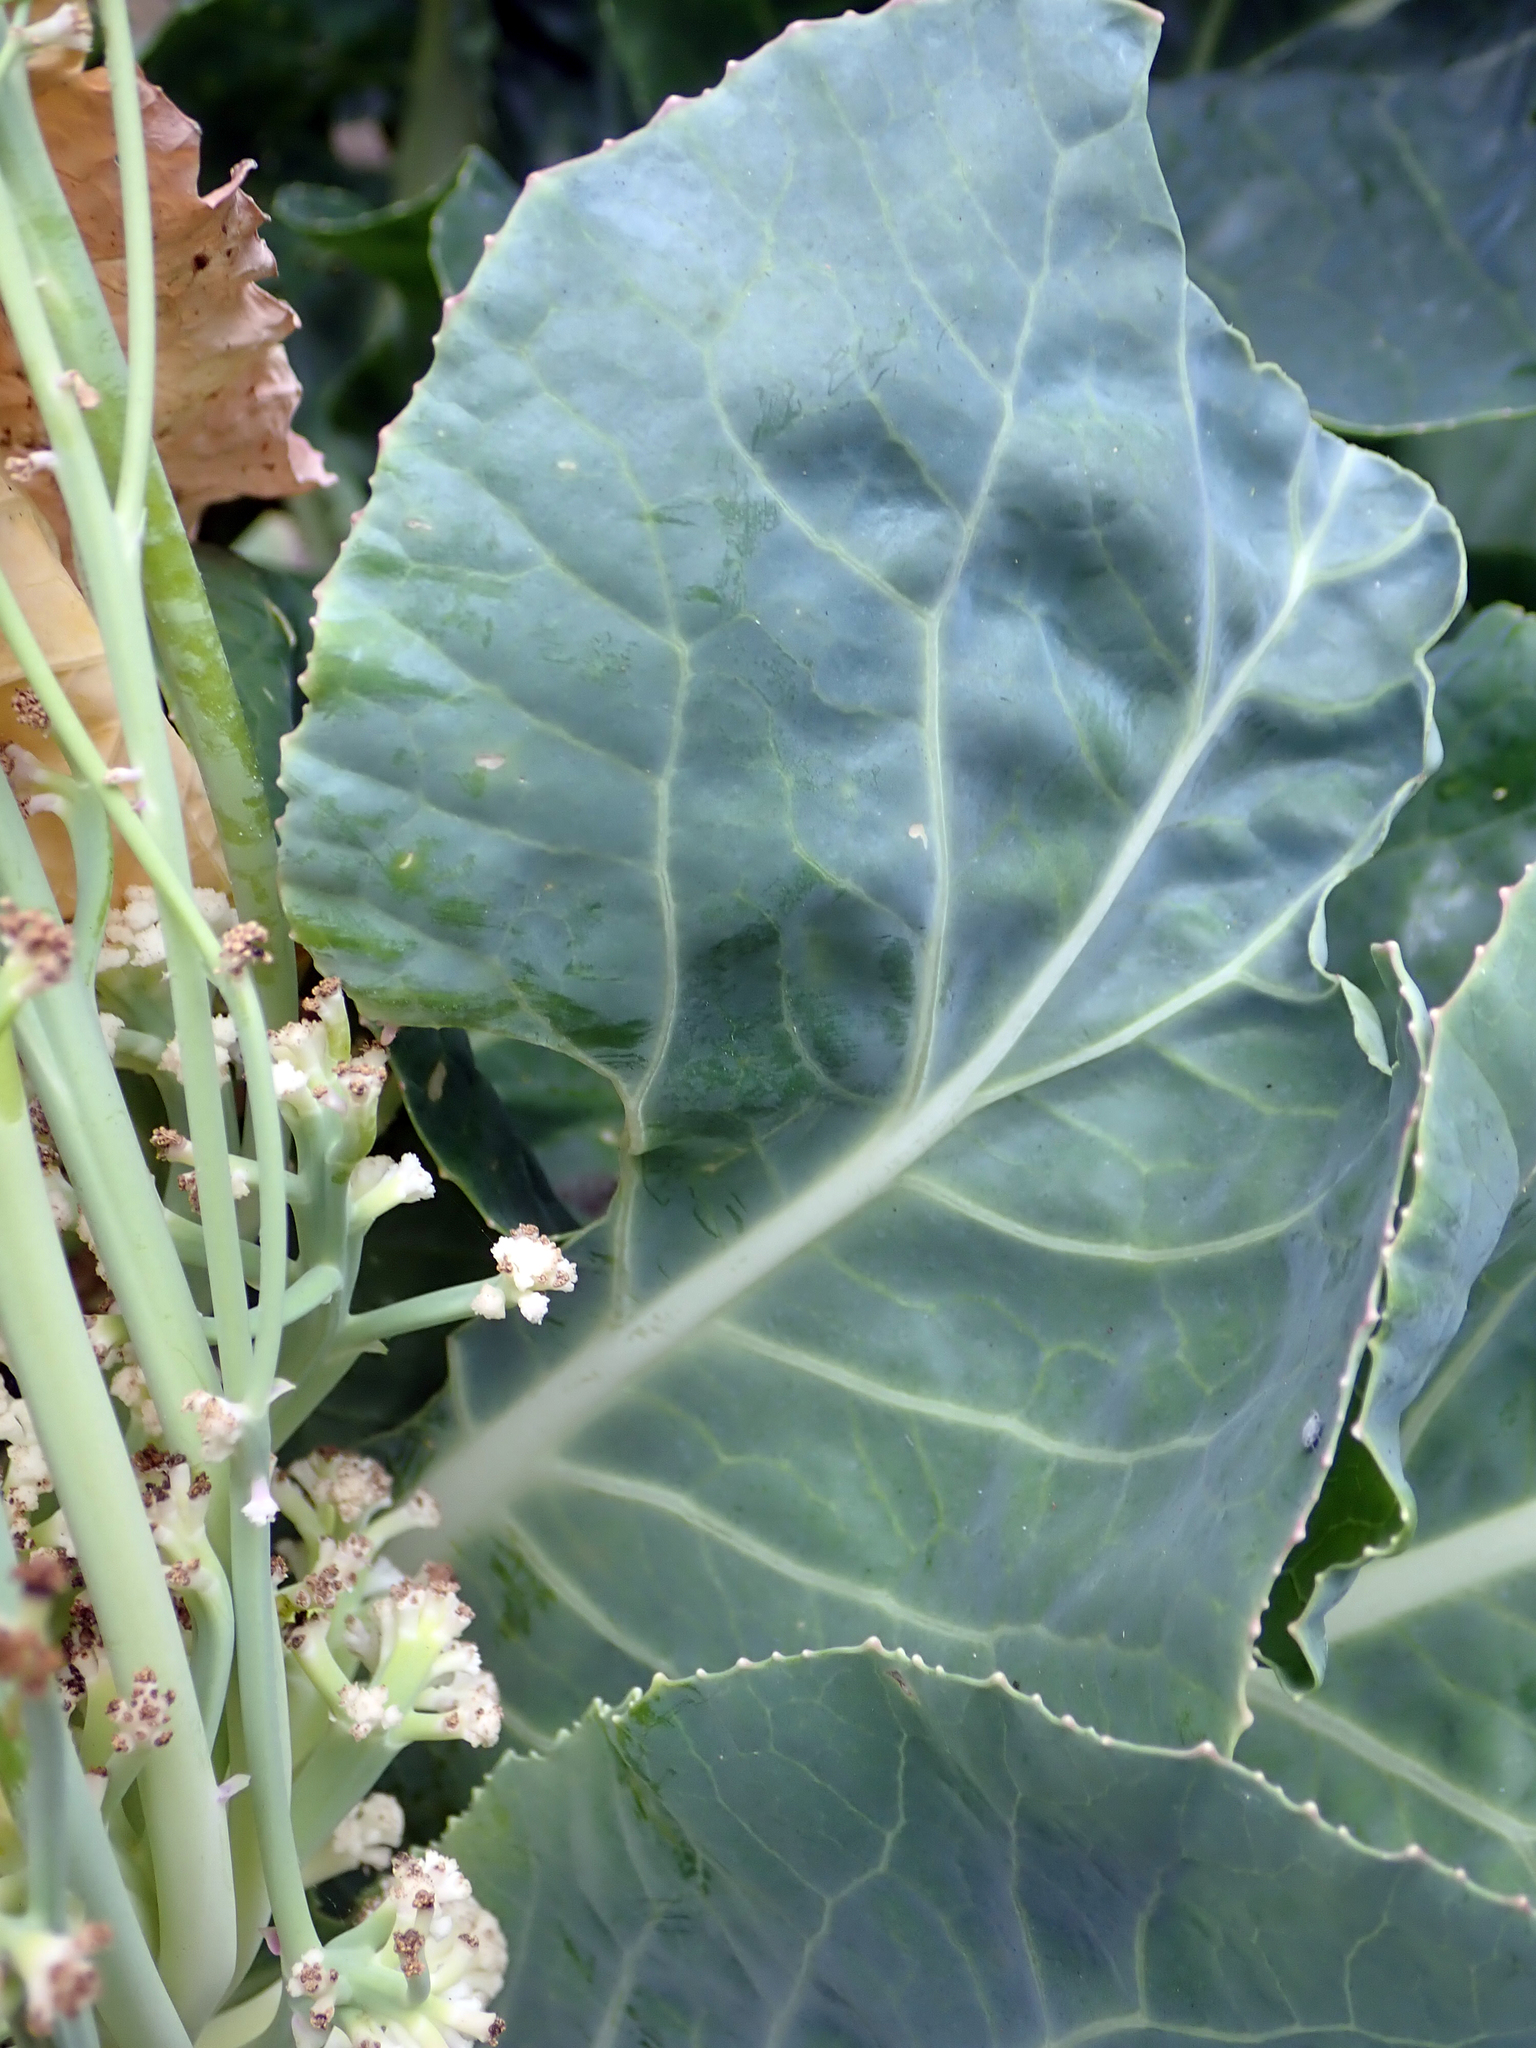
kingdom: Plantae
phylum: Tracheophyta
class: Magnoliopsida
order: Brassicales
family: Brassicaceae
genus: Brassica
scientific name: Brassica cretica
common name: Mustard
